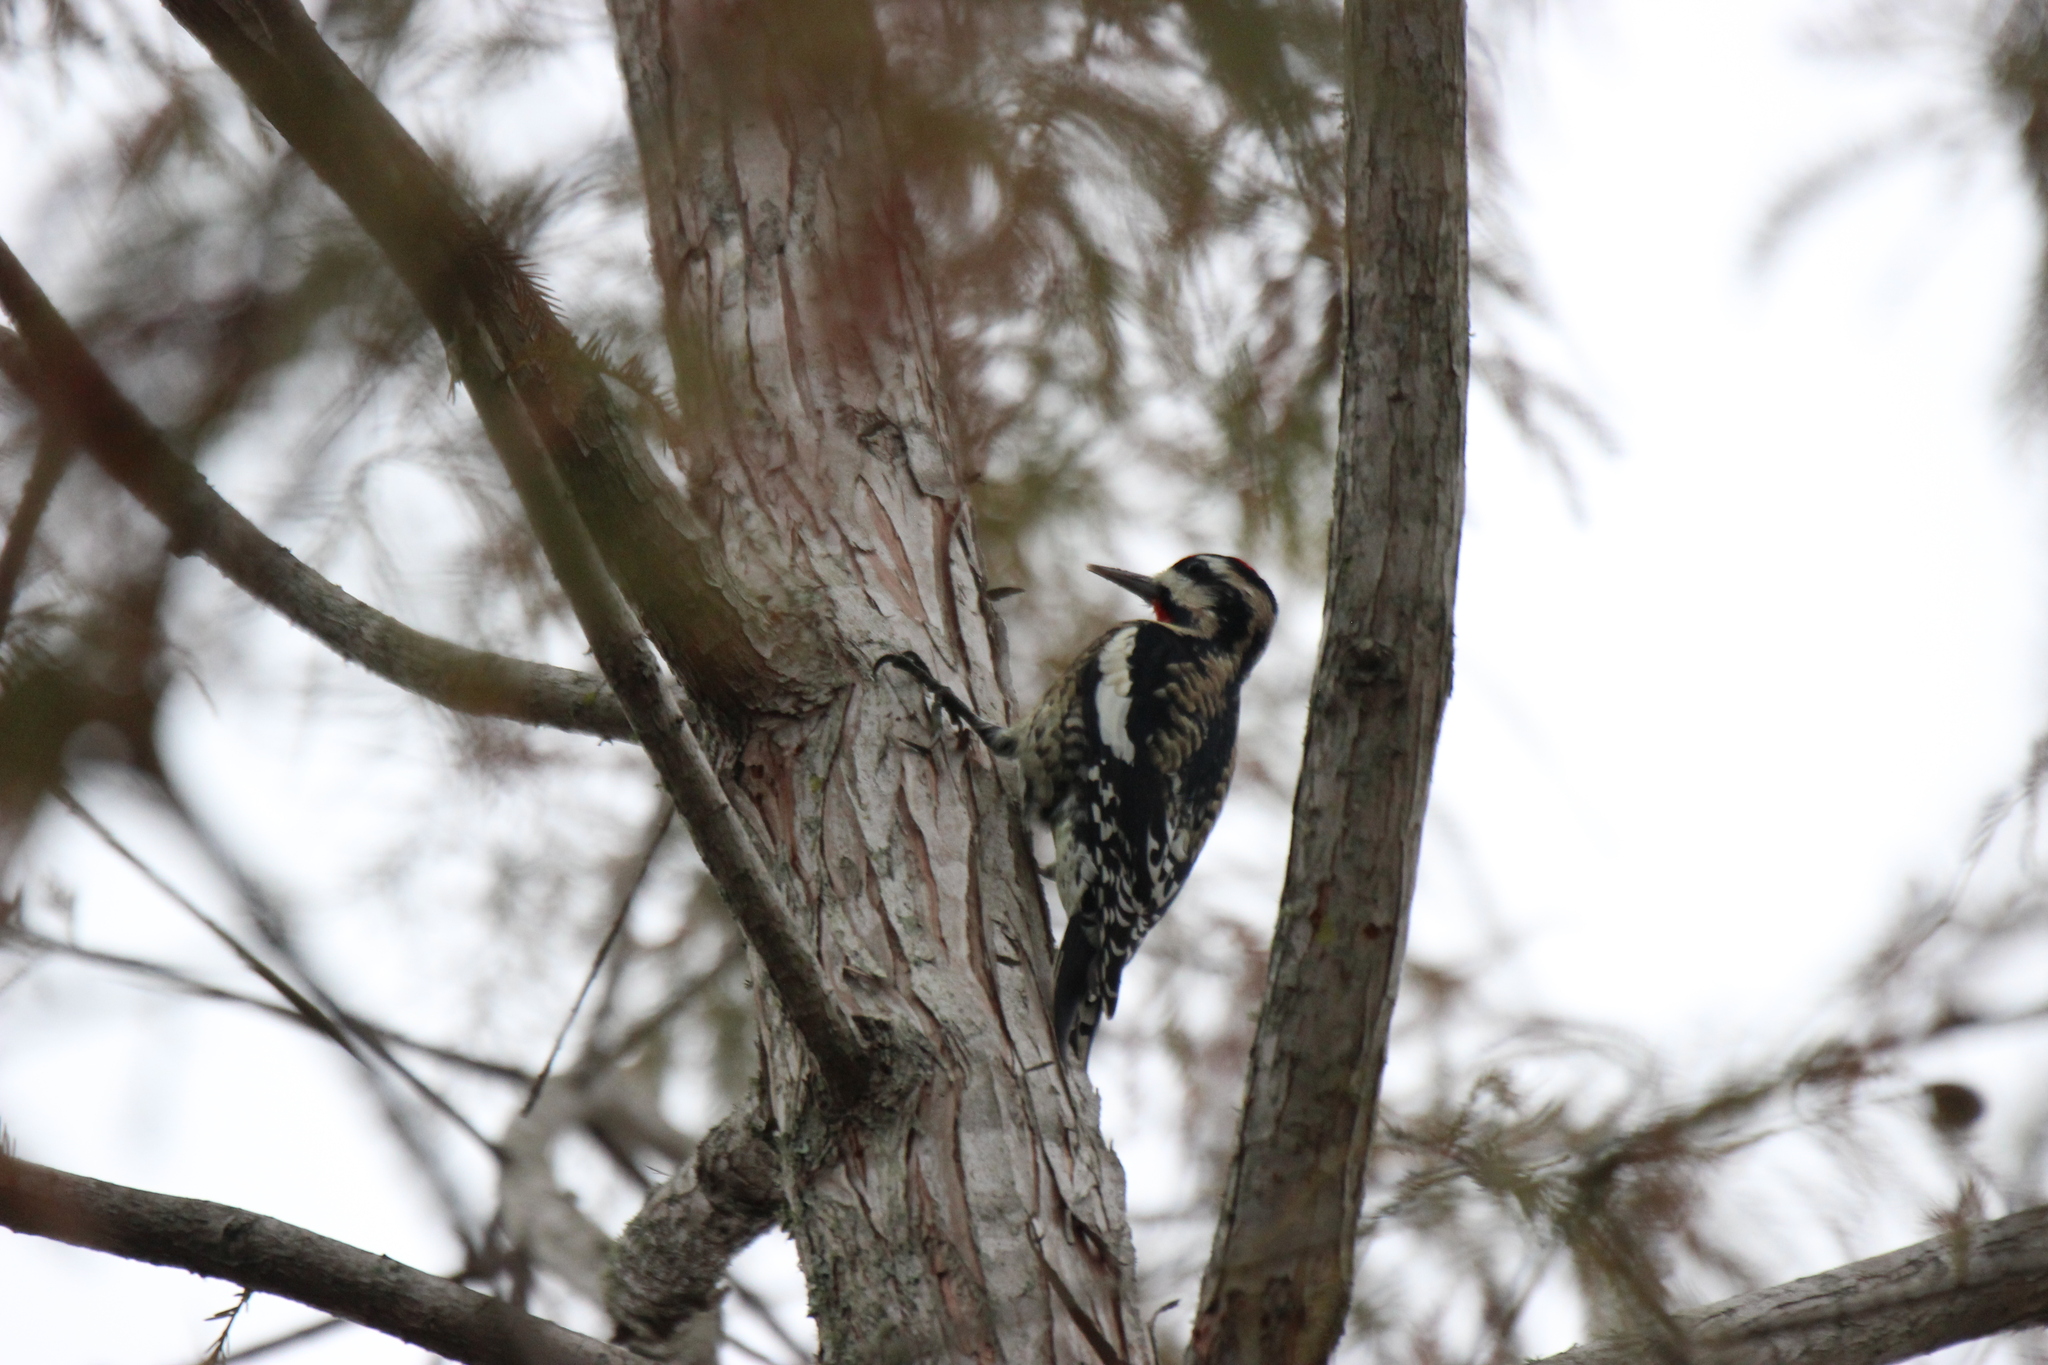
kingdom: Animalia
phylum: Chordata
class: Aves
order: Piciformes
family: Picidae
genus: Sphyrapicus
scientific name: Sphyrapicus varius
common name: Yellow-bellied sapsucker
